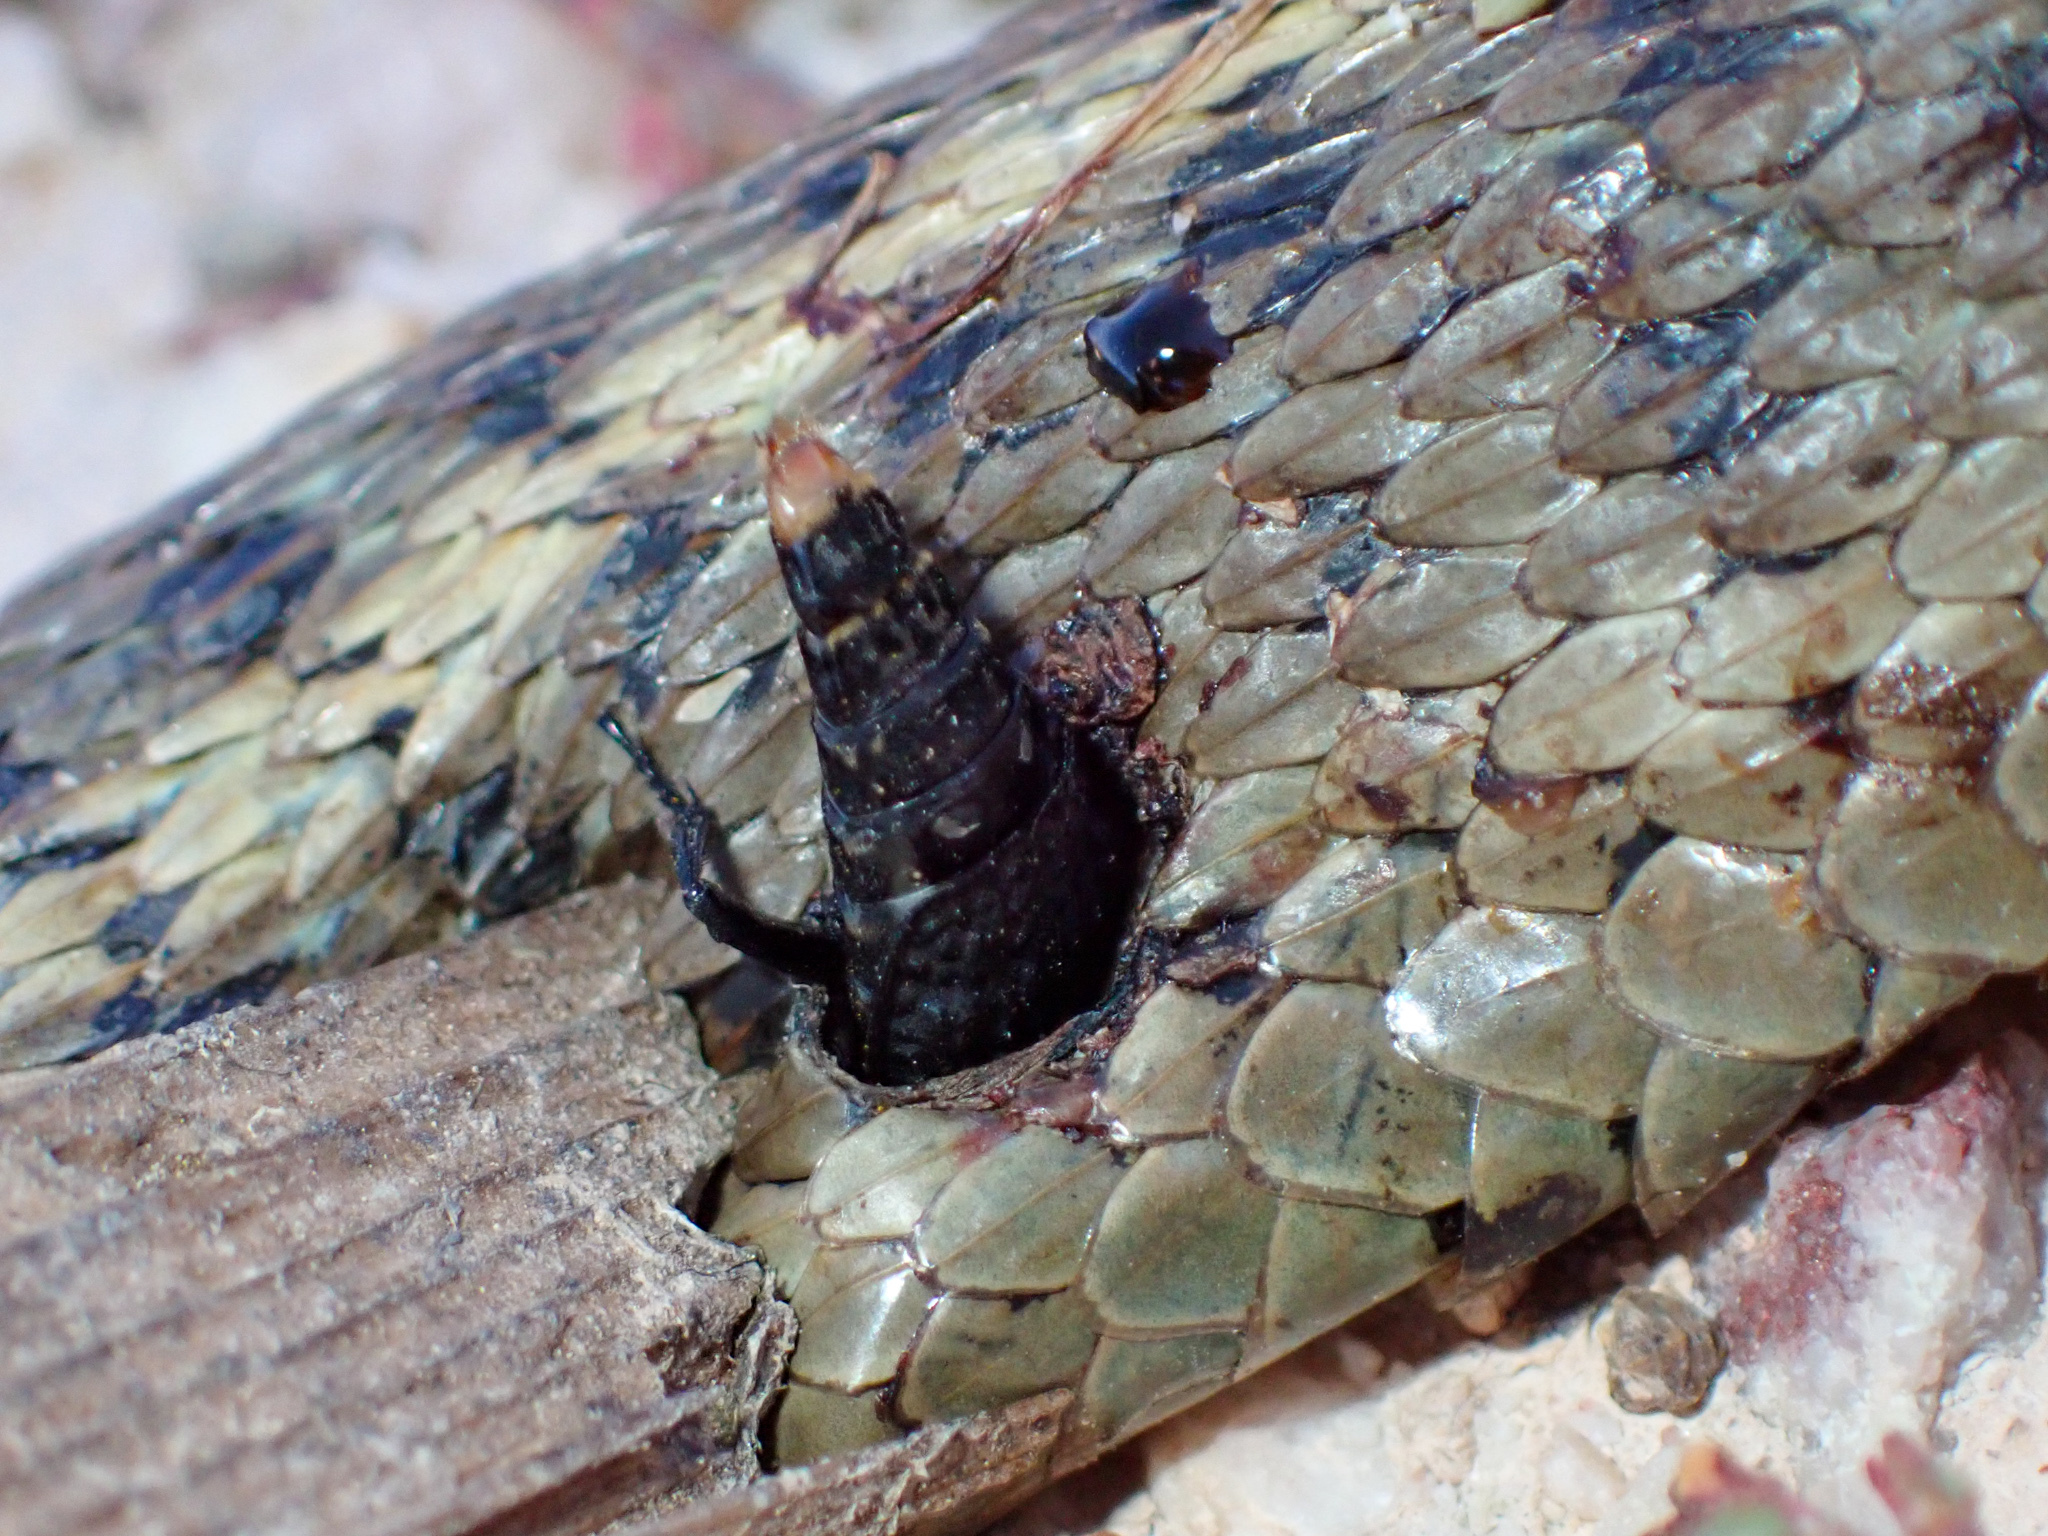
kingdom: Animalia
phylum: Arthropoda
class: Insecta
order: Coleoptera
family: Staphylinidae
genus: Thanatophilus
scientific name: Thanatophilus lapponicus
